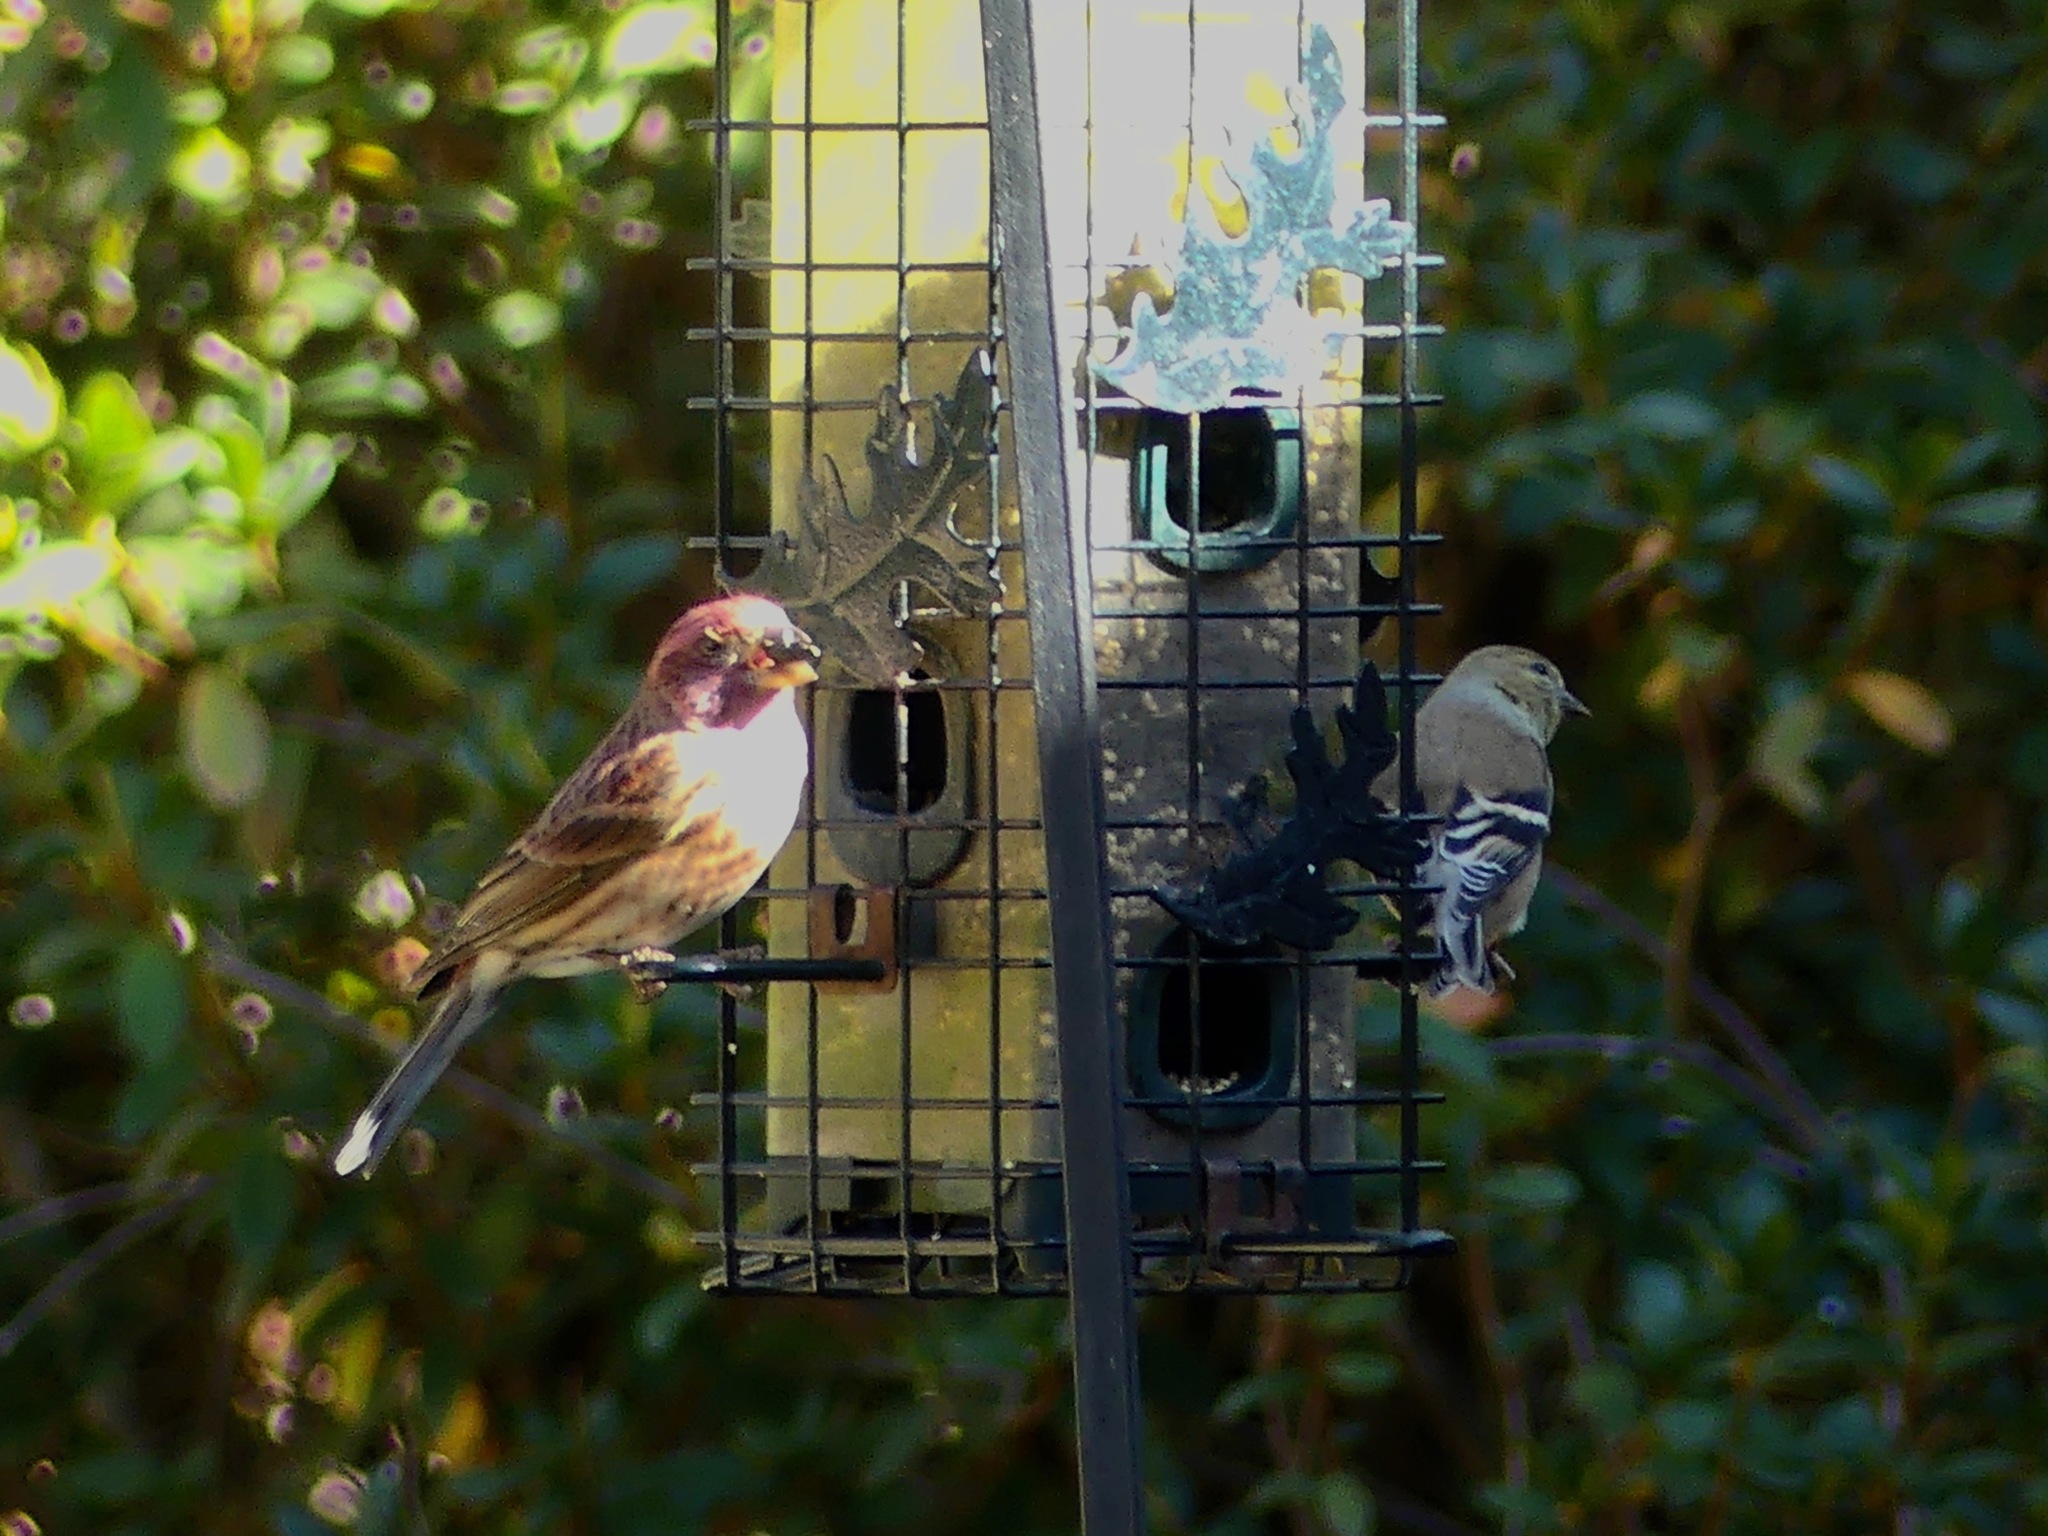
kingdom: Animalia
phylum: Chordata
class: Aves
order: Passeriformes
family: Fringillidae
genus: Haemorhous
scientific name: Haemorhous purpureus
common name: Purple finch
